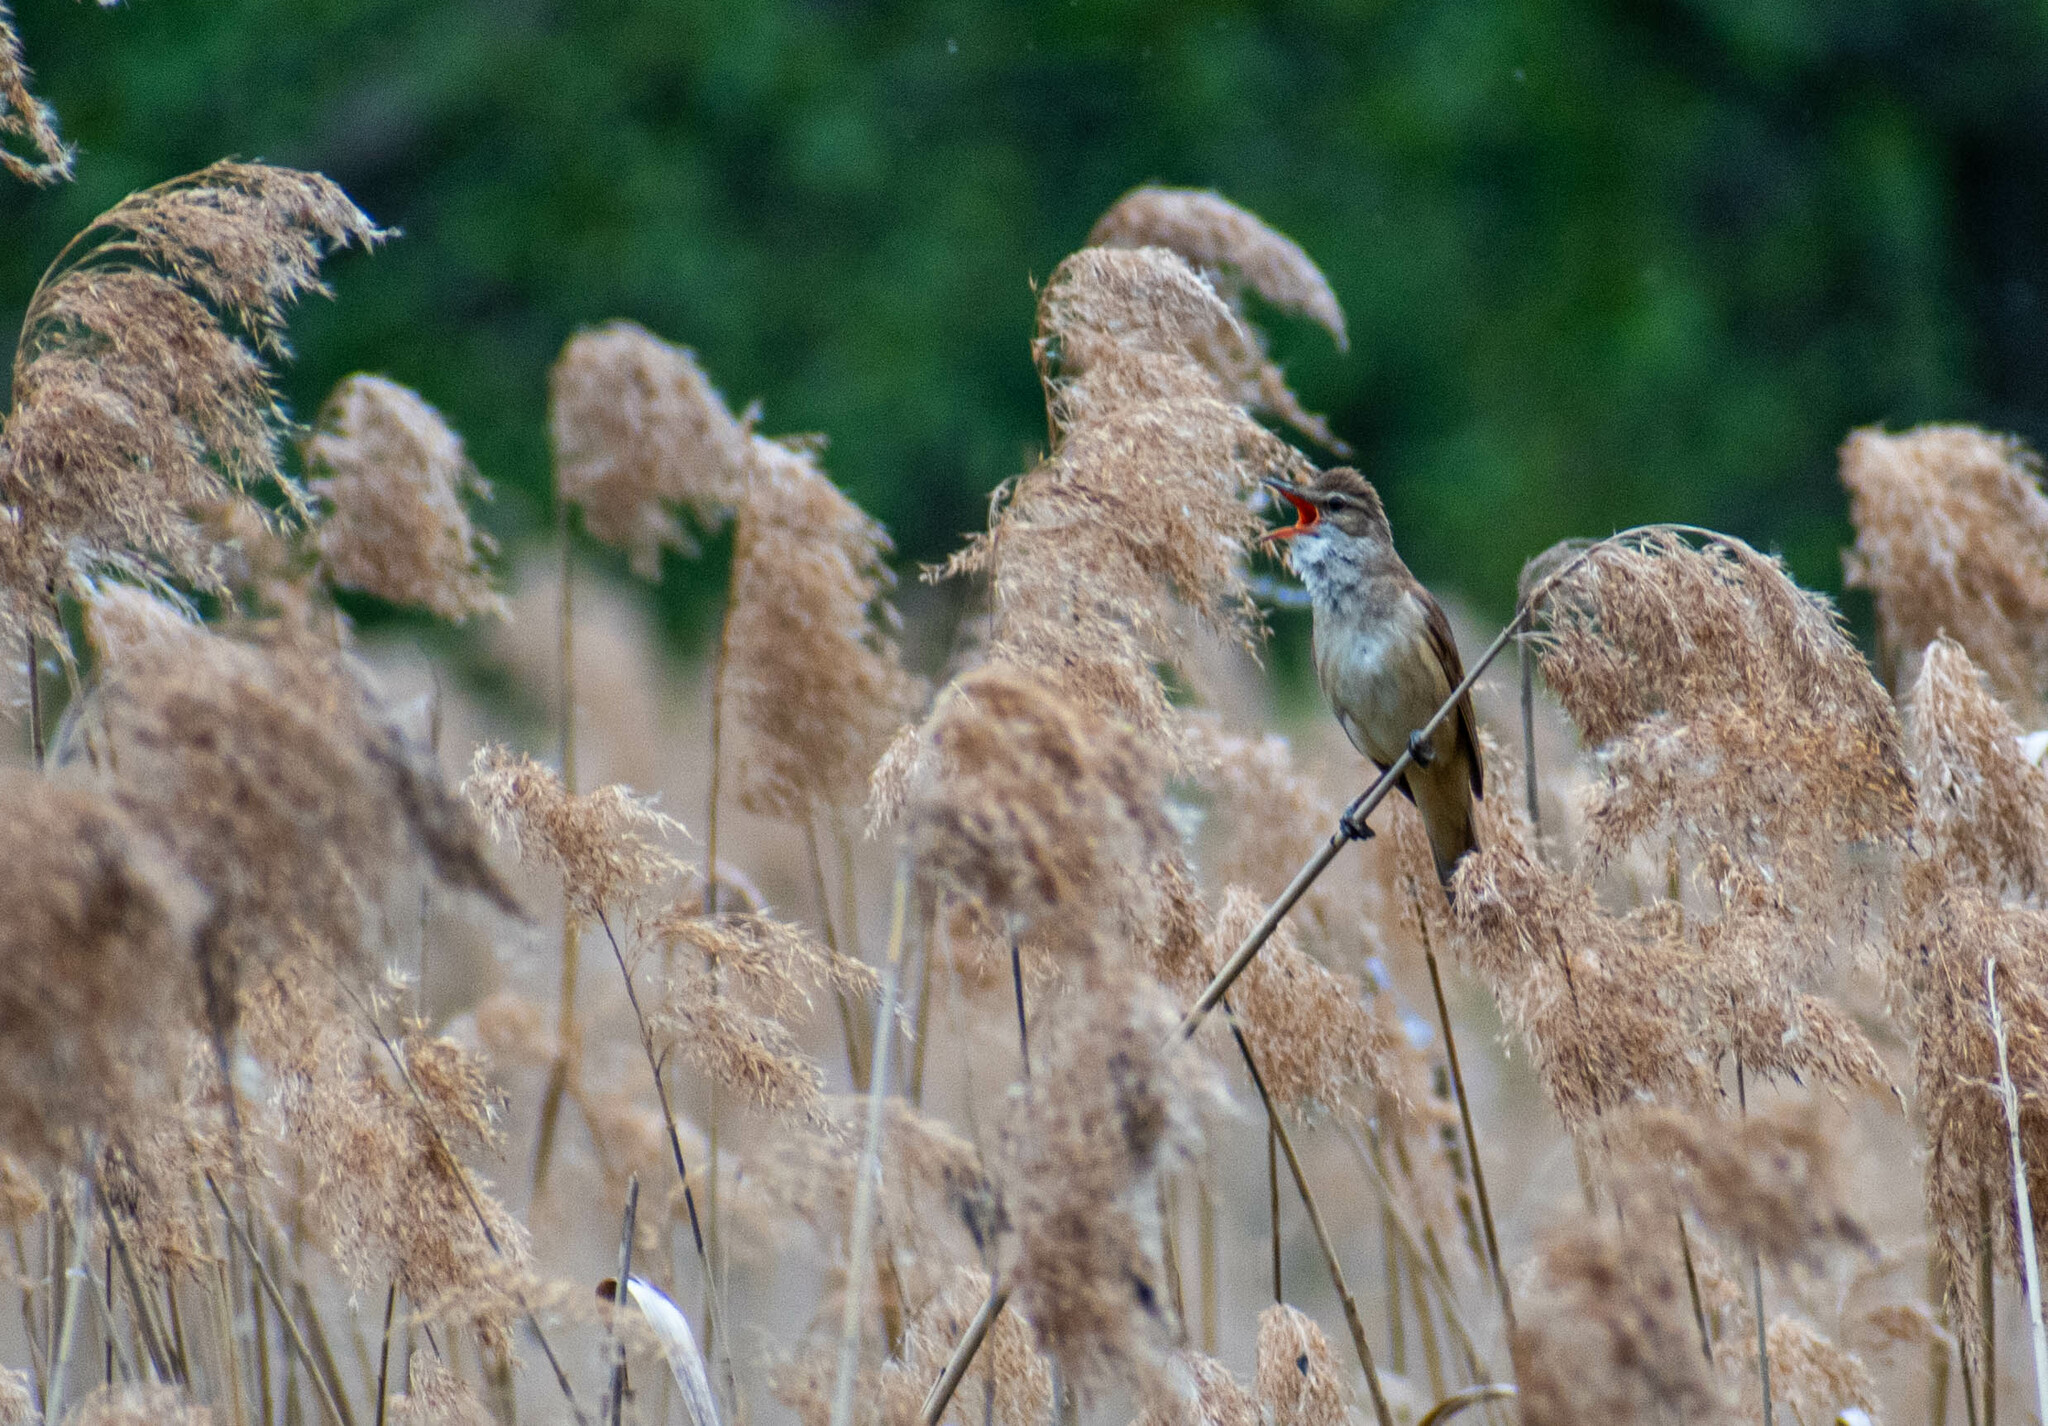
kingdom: Animalia
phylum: Chordata
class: Aves
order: Passeriformes
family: Acrocephalidae
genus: Acrocephalus
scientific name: Acrocephalus arundinaceus
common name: Great reed warbler
